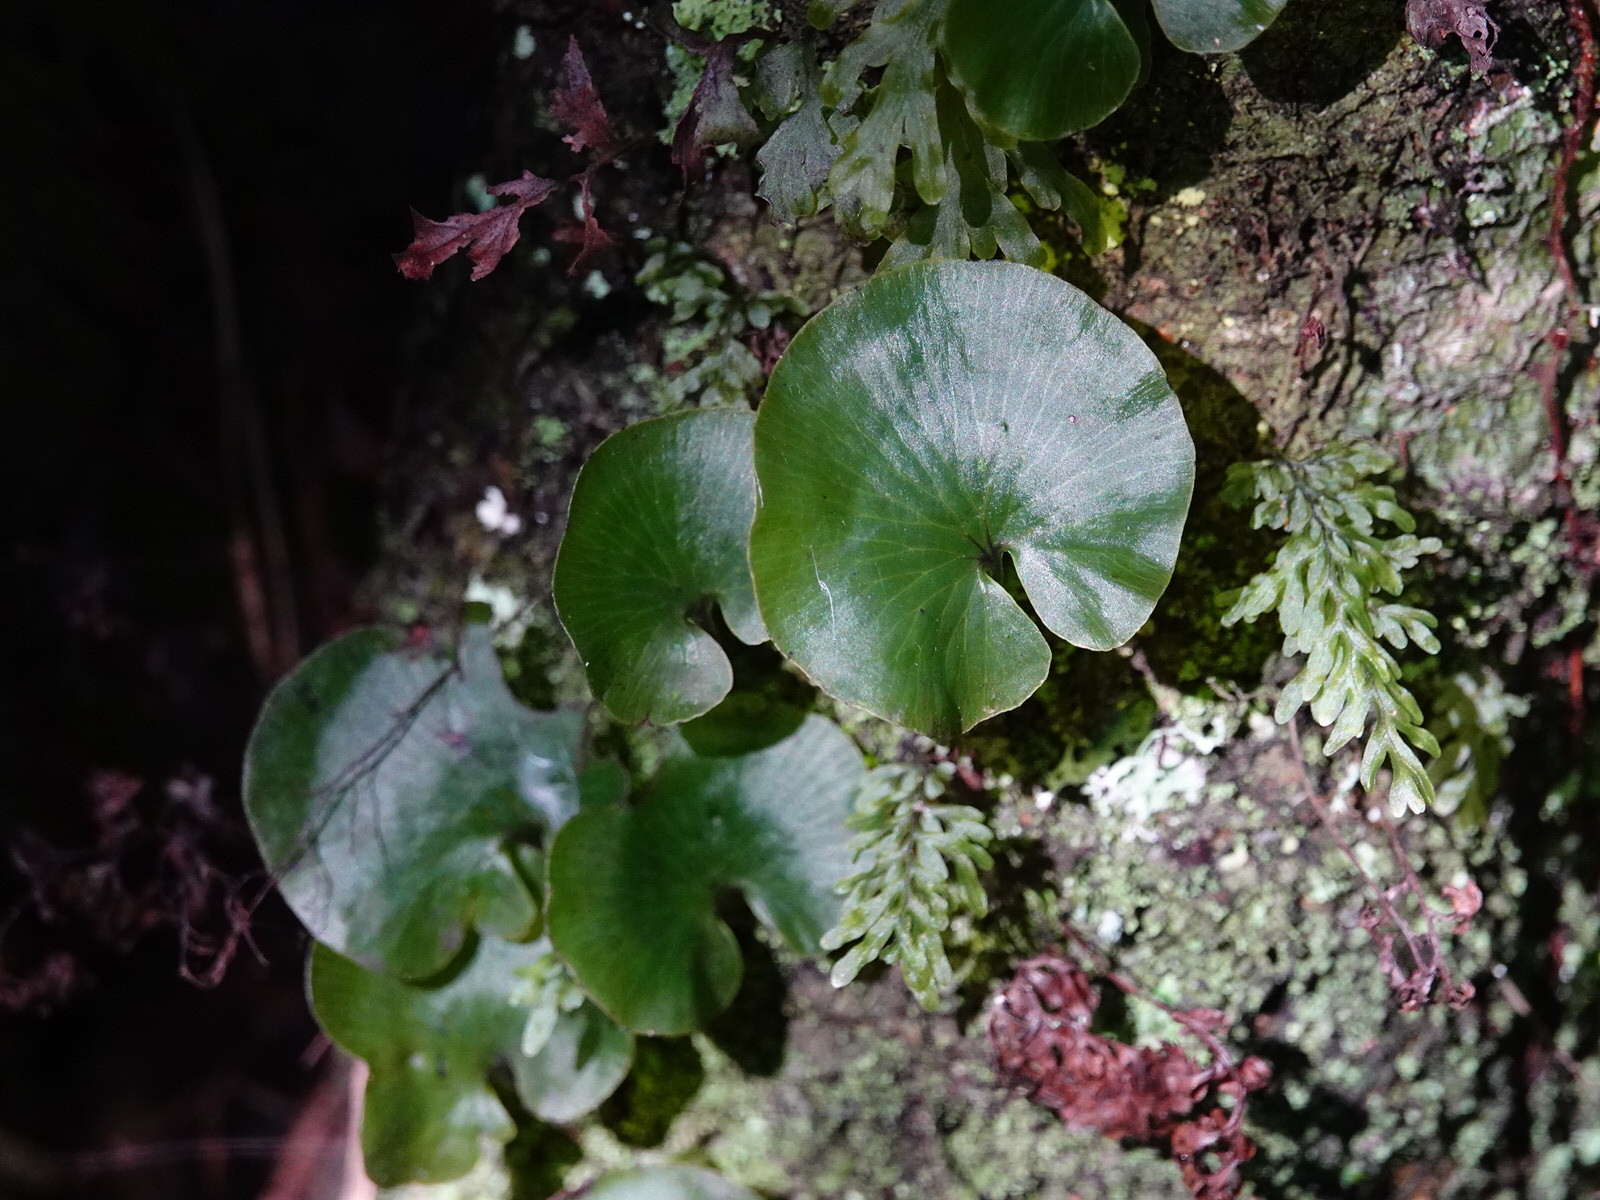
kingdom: Plantae
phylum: Tracheophyta
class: Polypodiopsida
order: Hymenophyllales
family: Hymenophyllaceae
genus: Hymenophyllum
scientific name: Hymenophyllum nephrophyllum
